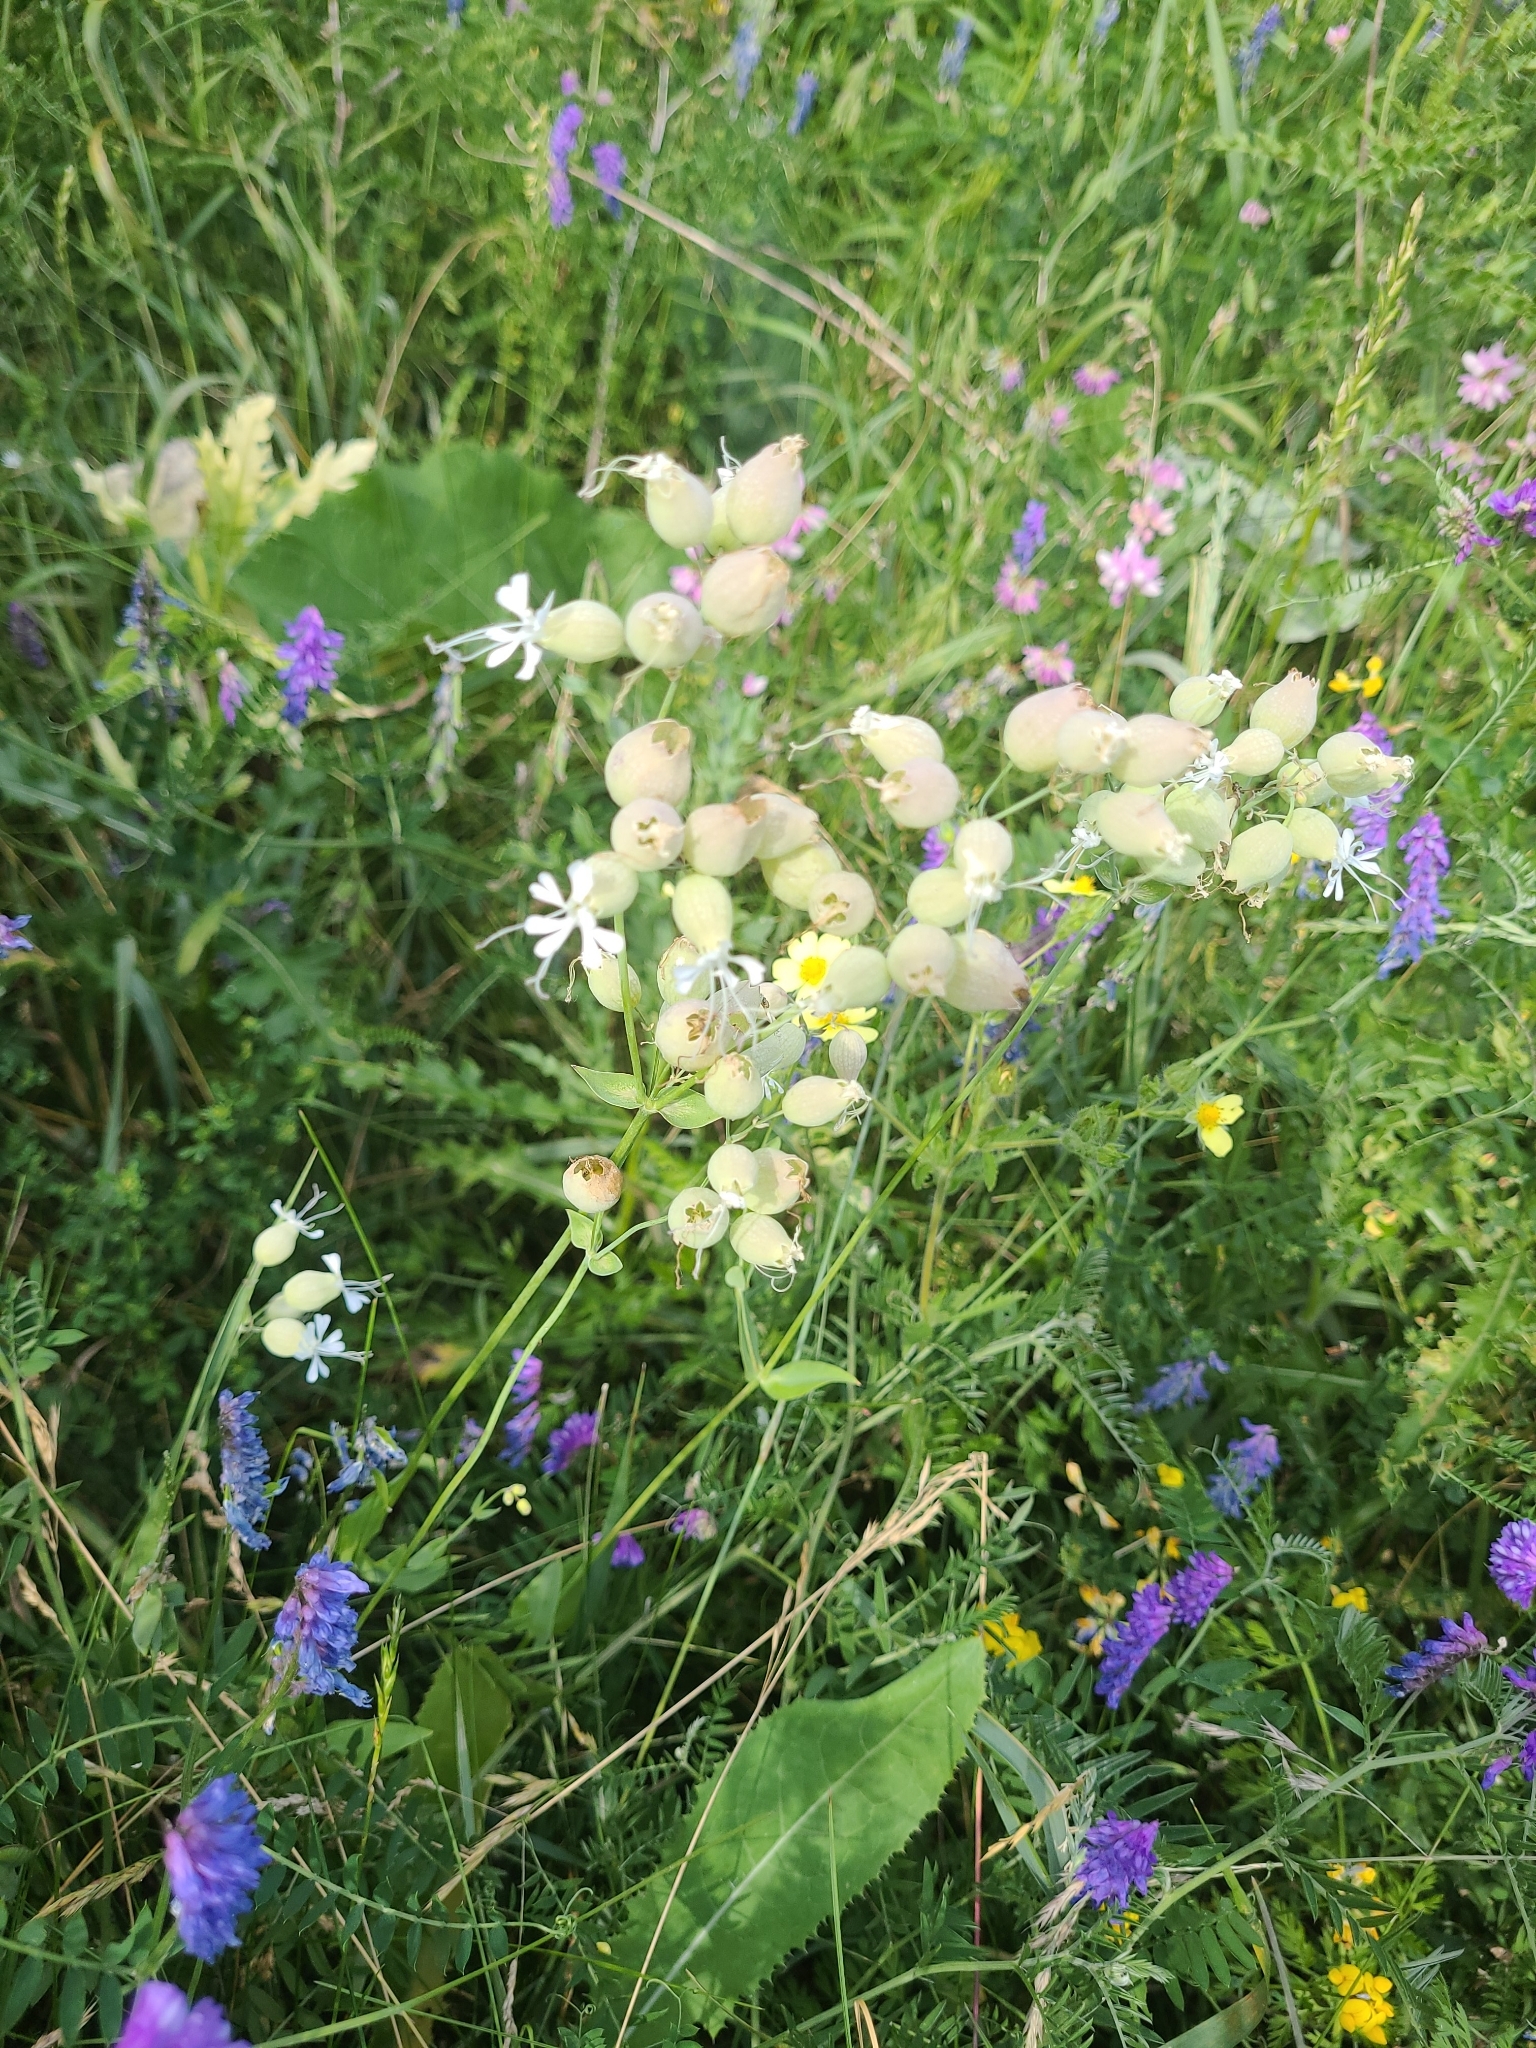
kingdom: Plantae
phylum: Tracheophyta
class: Magnoliopsida
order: Caryophyllales
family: Caryophyllaceae
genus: Silene
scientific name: Silene vulgaris
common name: Bladder campion
